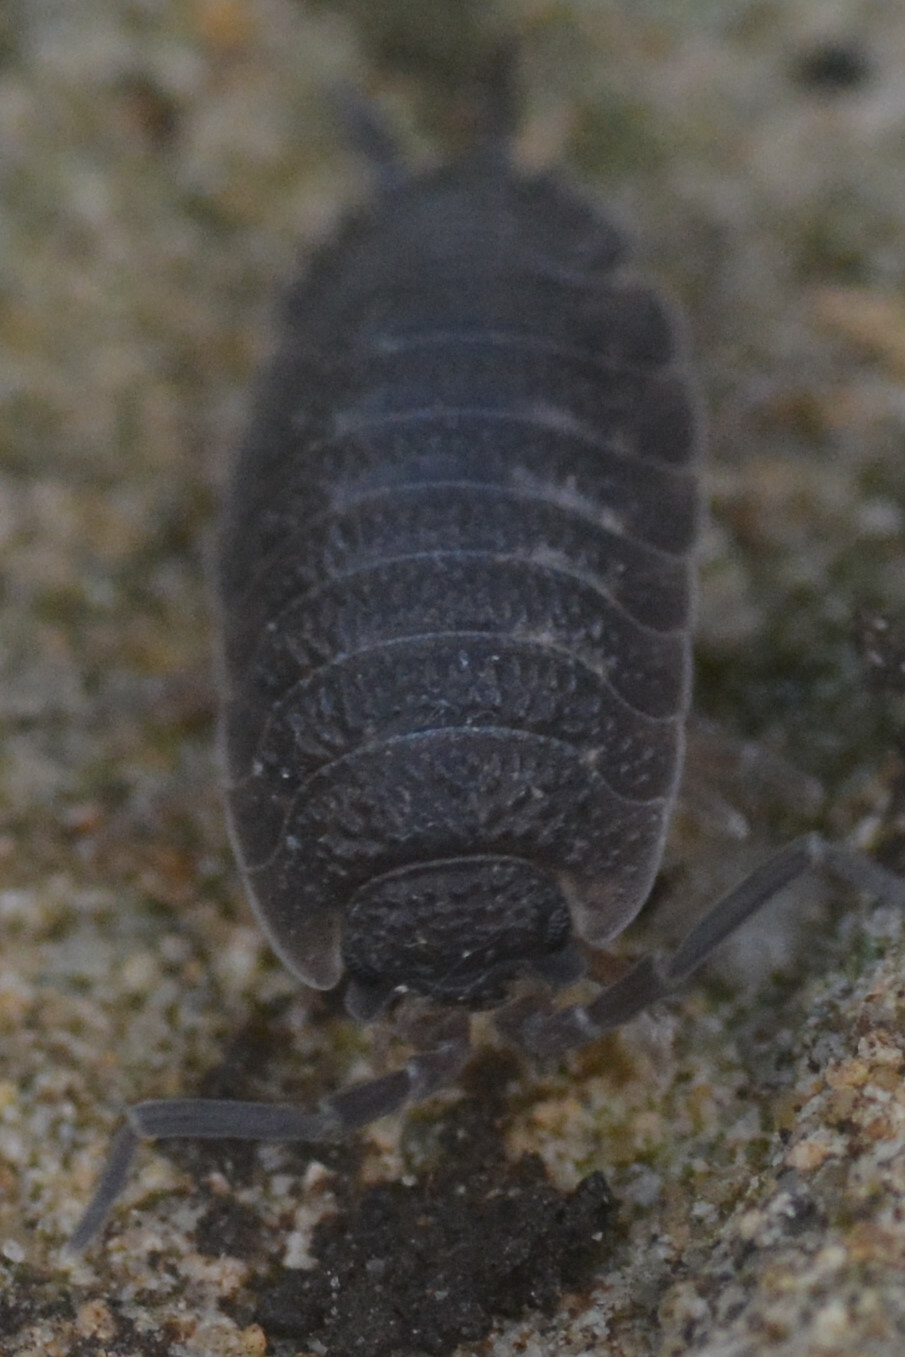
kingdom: Animalia
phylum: Arthropoda
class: Malacostraca
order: Isopoda
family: Porcellionidae
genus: Porcellio
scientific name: Porcellio scaber
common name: Common rough woodlouse
